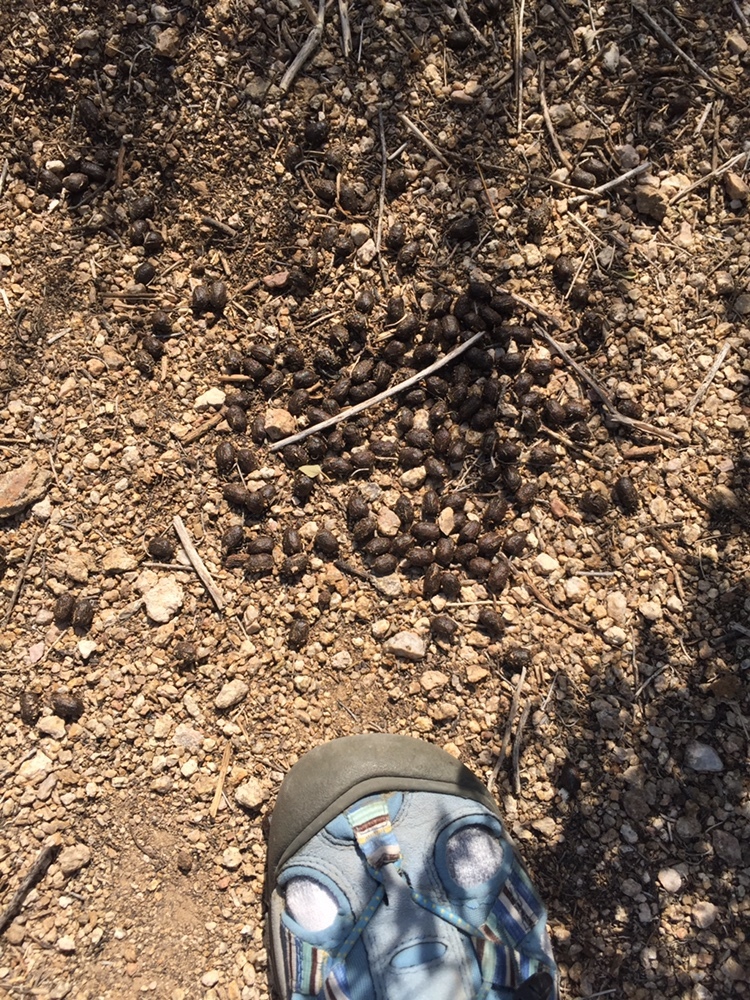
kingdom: Animalia
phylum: Chordata
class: Mammalia
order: Lagomorpha
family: Leporidae
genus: Sylvilagus
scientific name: Sylvilagus audubonii
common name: Desert cottontail
